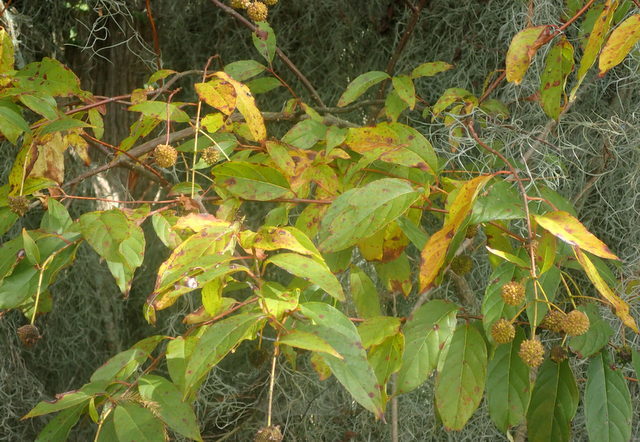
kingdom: Plantae
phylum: Tracheophyta
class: Magnoliopsida
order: Gentianales
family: Rubiaceae
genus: Cephalanthus
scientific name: Cephalanthus occidentalis
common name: Button-willow
